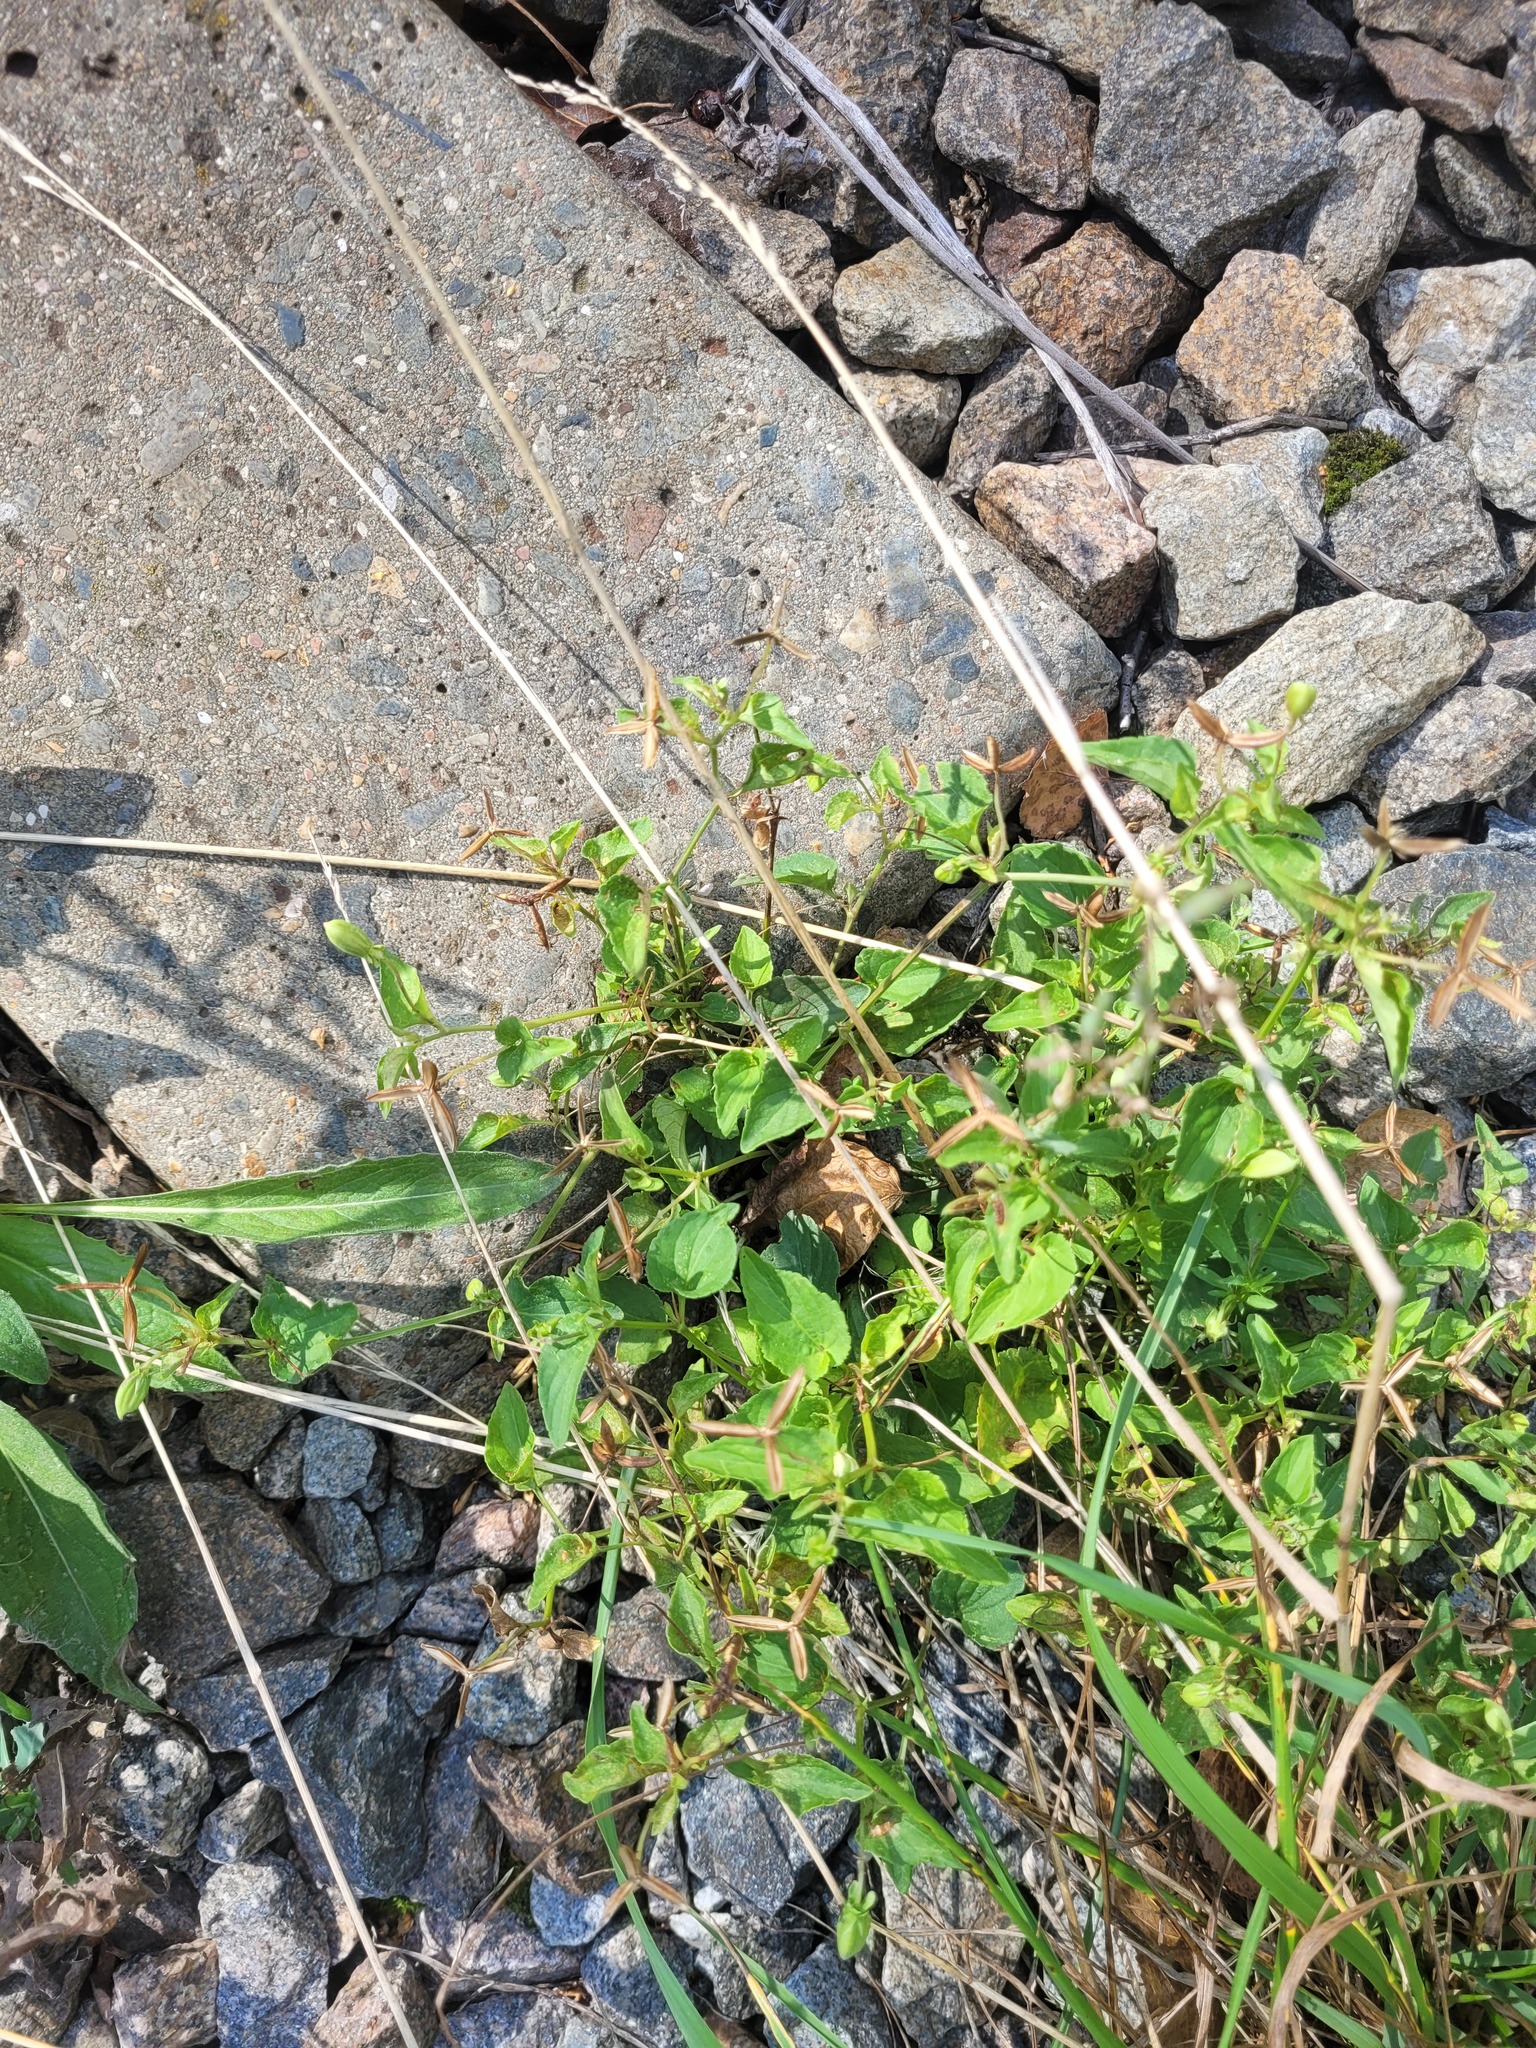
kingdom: Plantae
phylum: Tracheophyta
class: Magnoliopsida
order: Malpighiales
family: Violaceae
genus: Viola
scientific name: Viola canina
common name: Heath dog-violet
